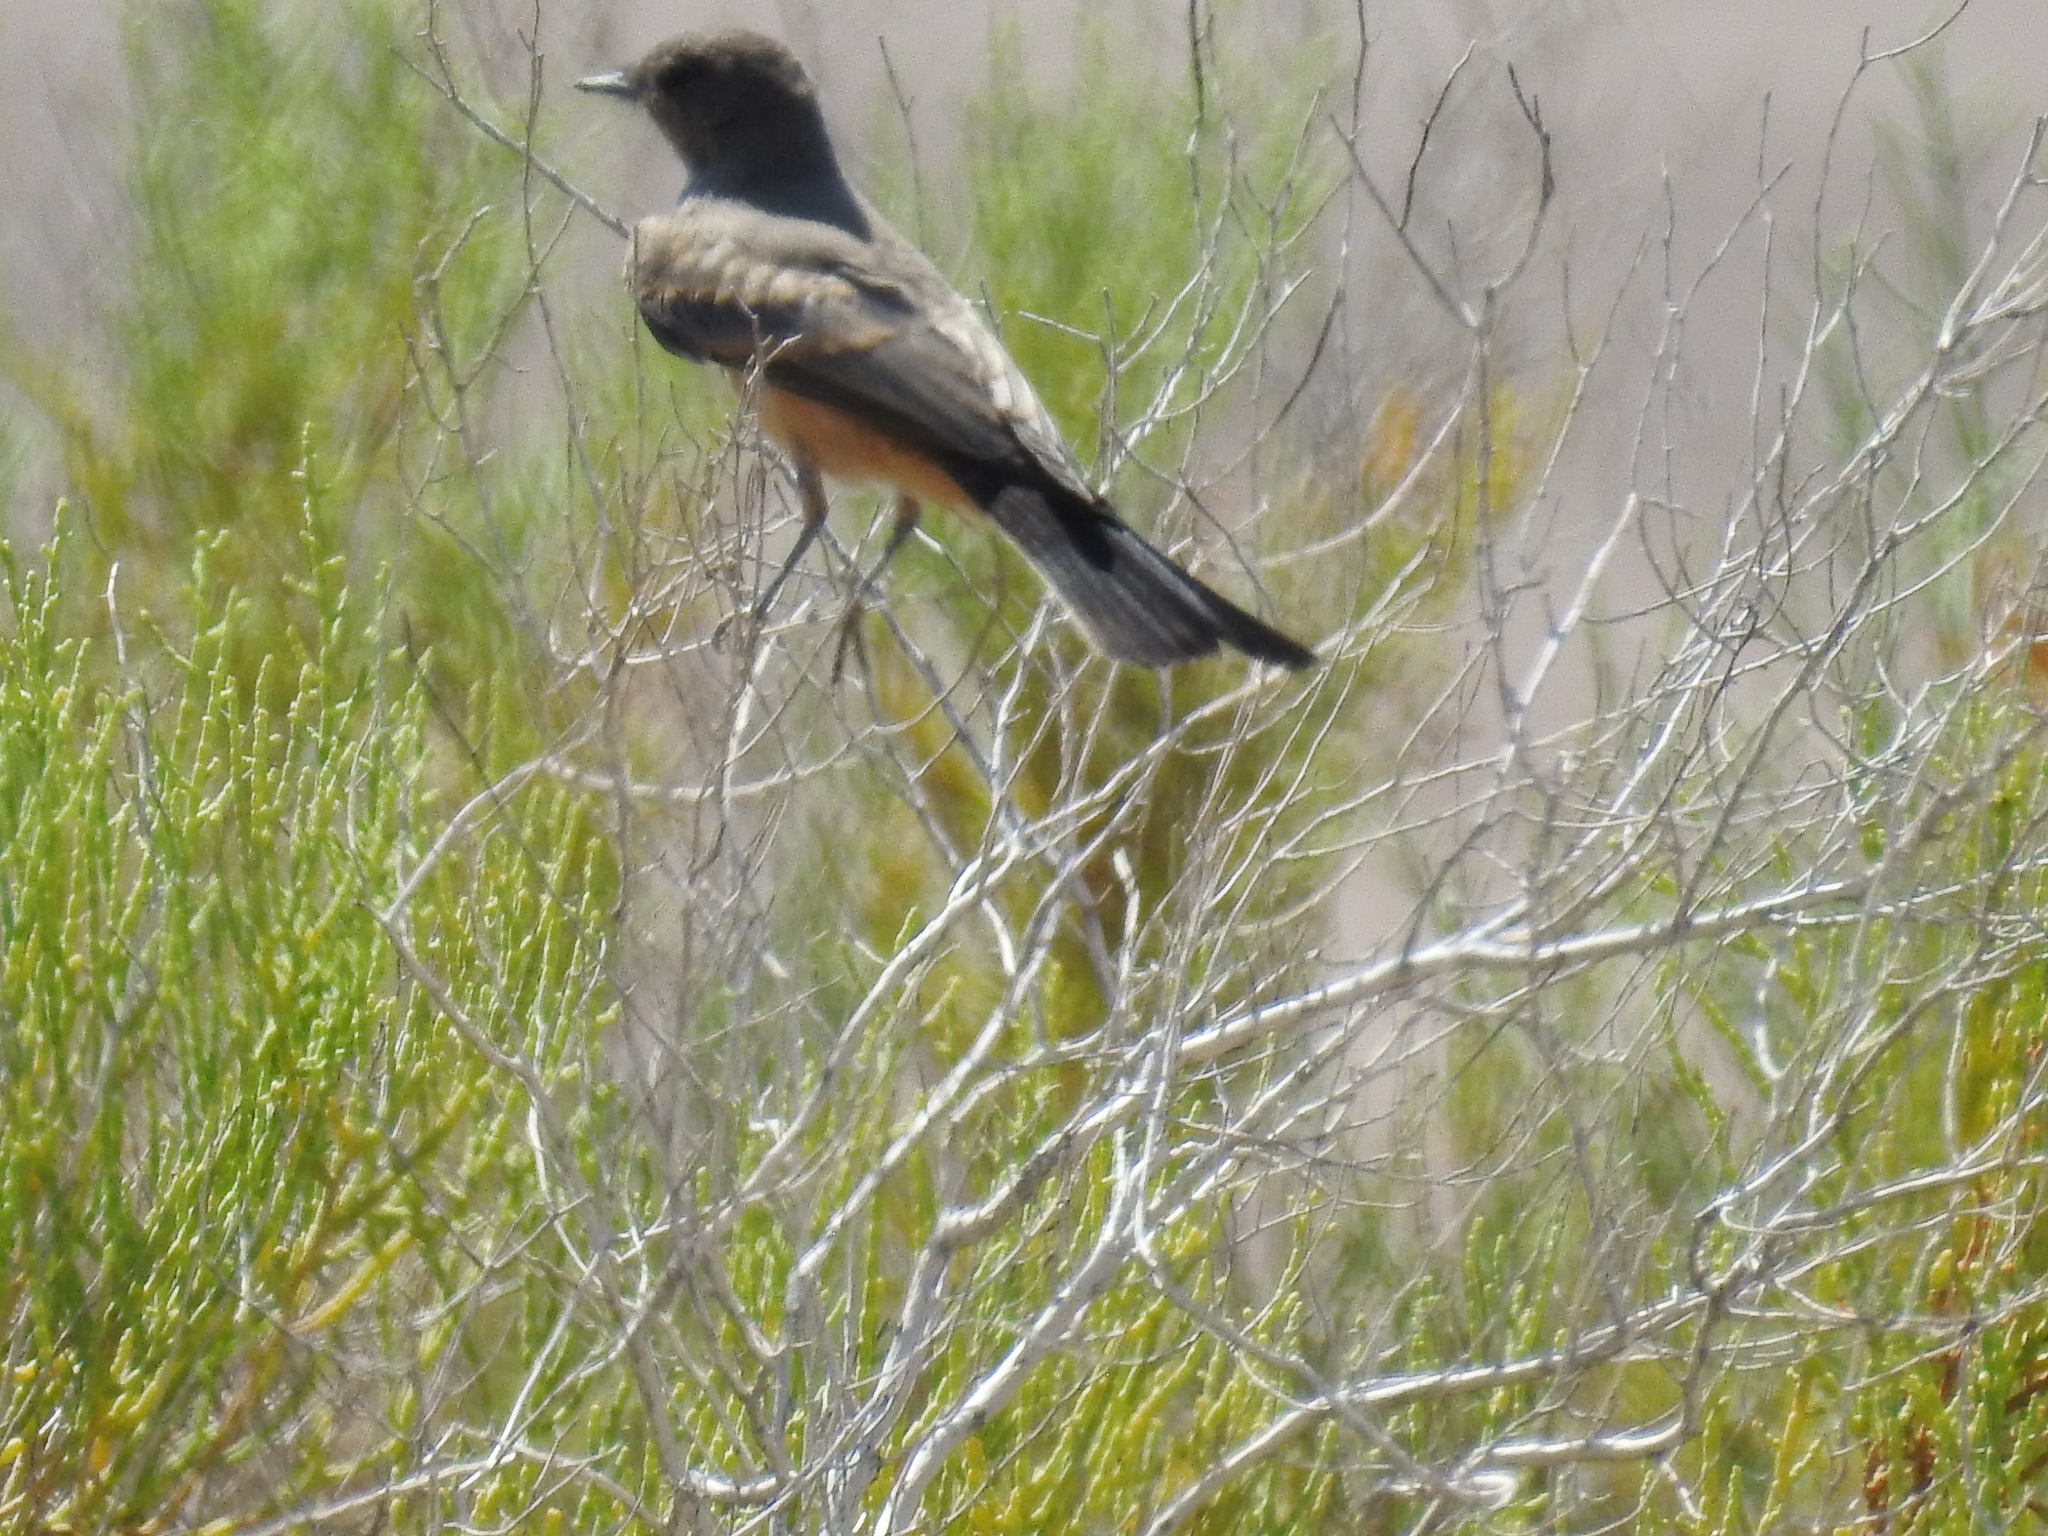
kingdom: Animalia
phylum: Chordata
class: Aves
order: Passeriformes
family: Tyrannidae
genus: Sayornis
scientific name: Sayornis saya
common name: Say's phoebe
